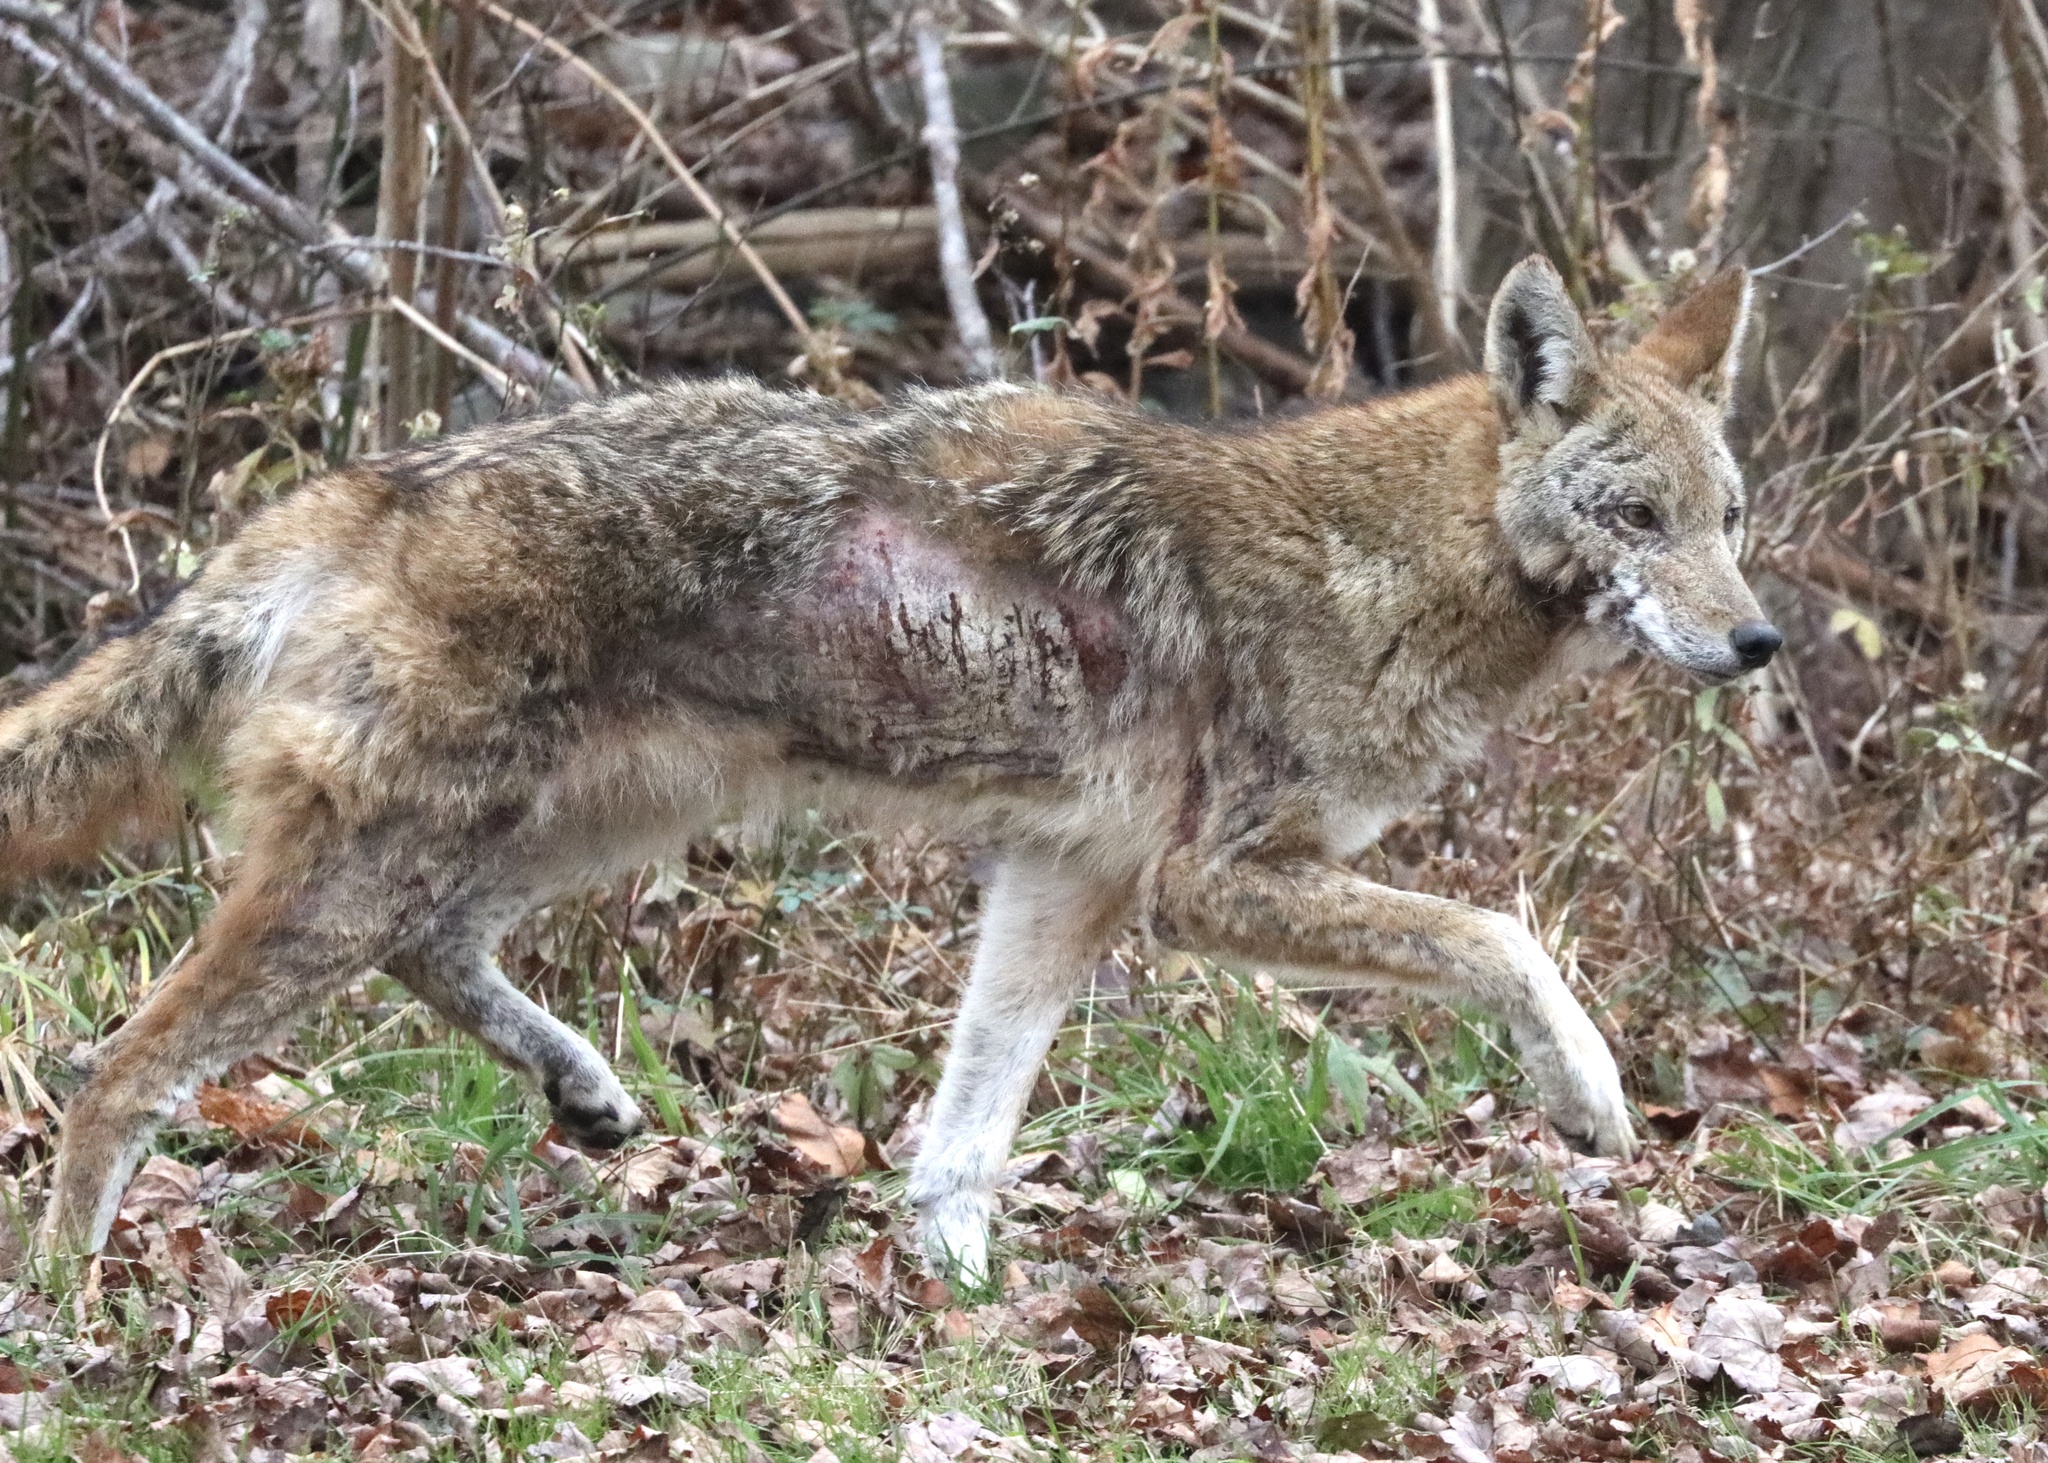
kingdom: Animalia
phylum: Chordata
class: Mammalia
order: Carnivora
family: Canidae
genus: Canis
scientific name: Canis latrans
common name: Coyote
